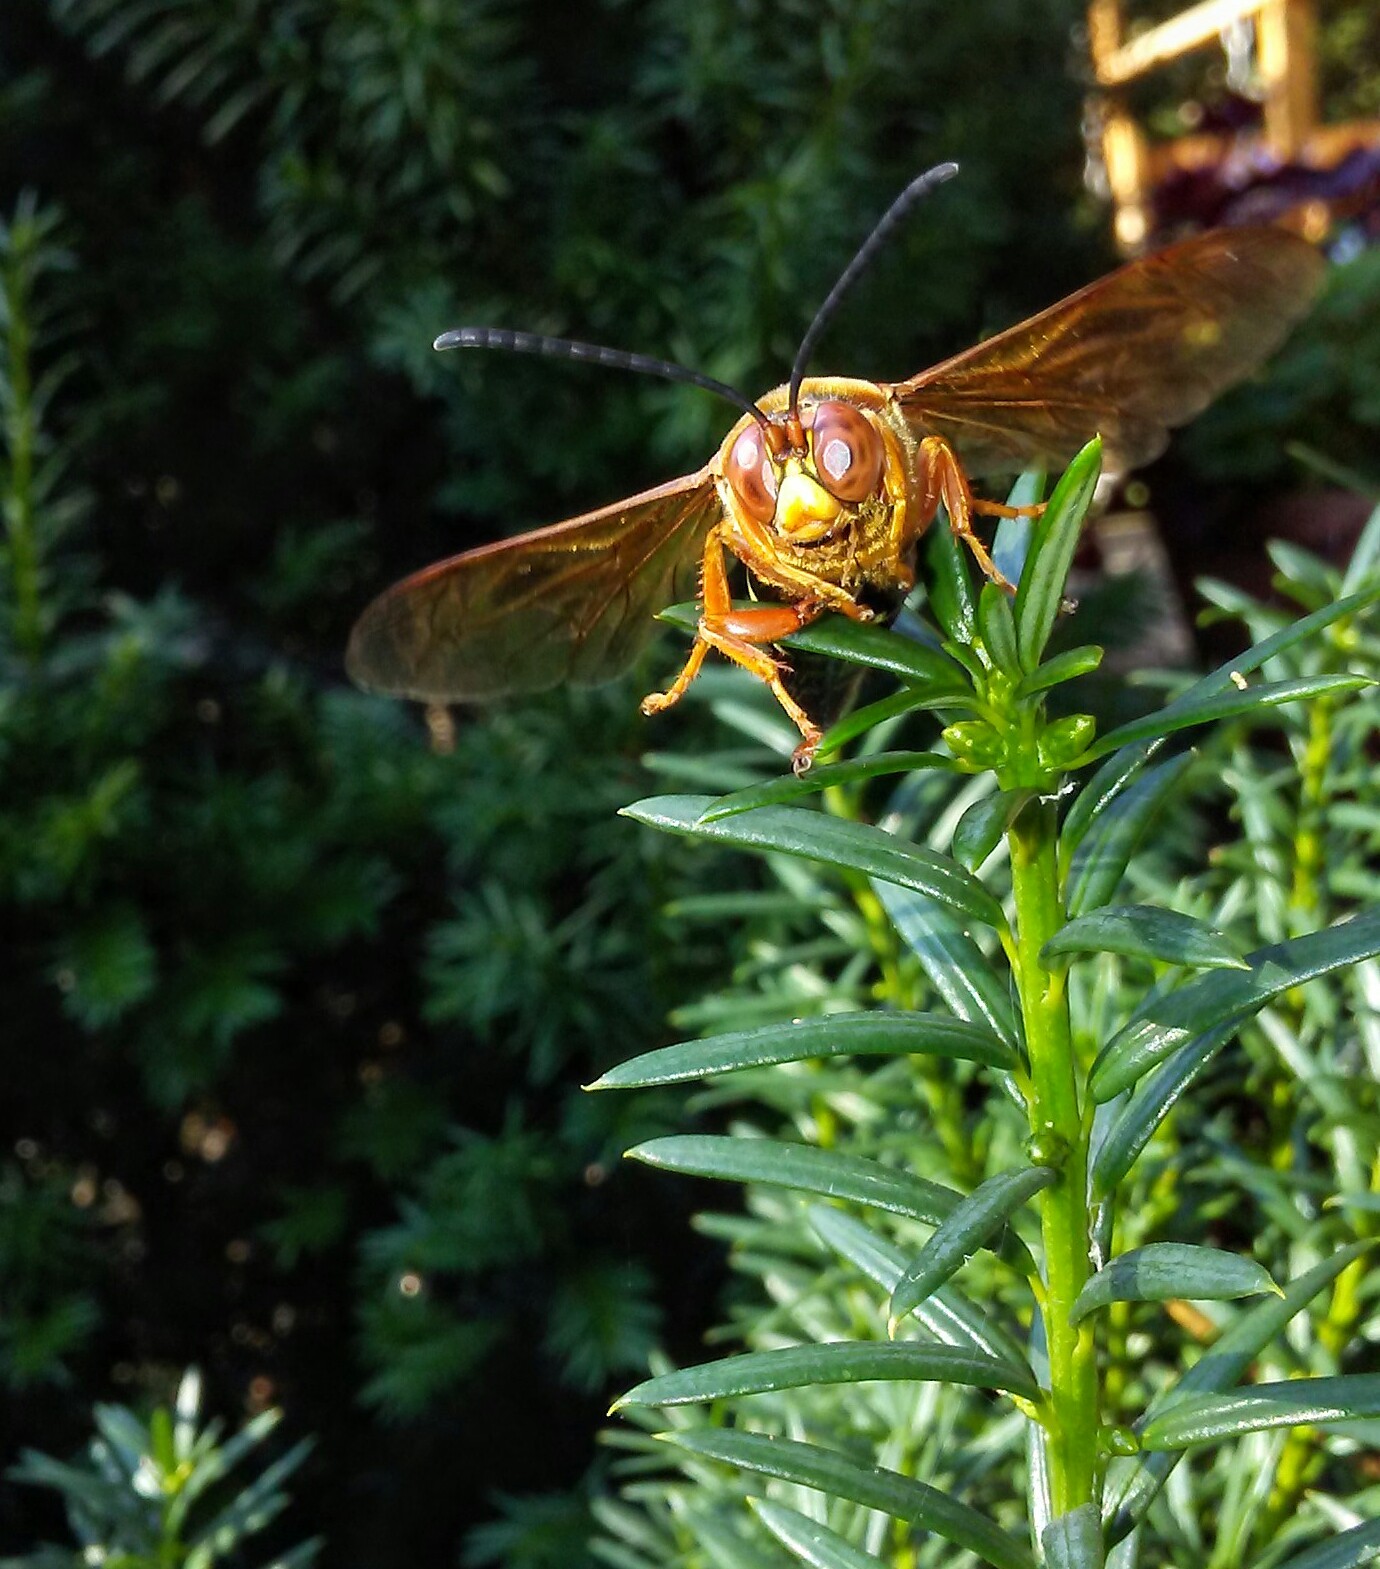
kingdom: Animalia
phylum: Arthropoda
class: Insecta
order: Hymenoptera
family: Crabronidae
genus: Sphecius
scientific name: Sphecius speciosus
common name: Cicada killer
